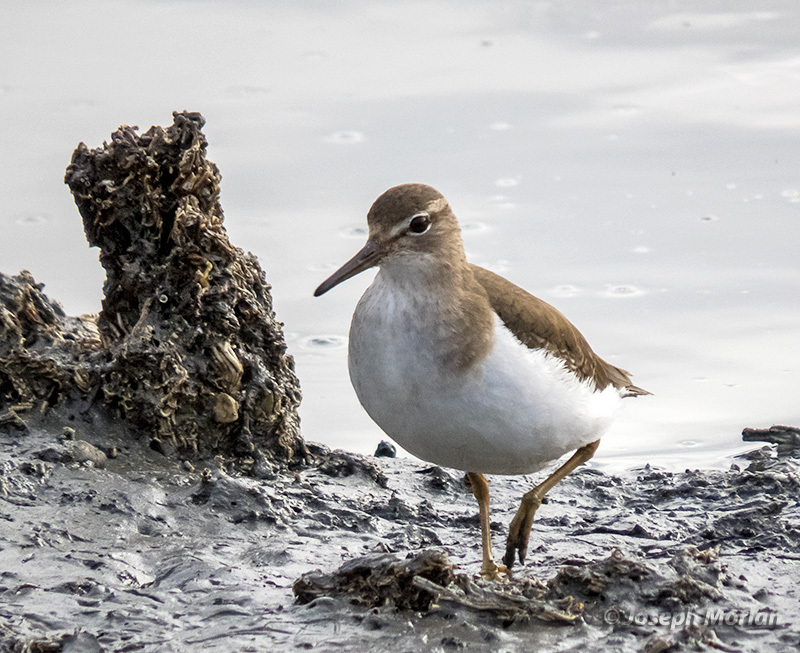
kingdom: Animalia
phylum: Chordata
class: Aves
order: Charadriiformes
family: Scolopacidae
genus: Actitis
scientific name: Actitis macularius
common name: Spotted sandpiper
